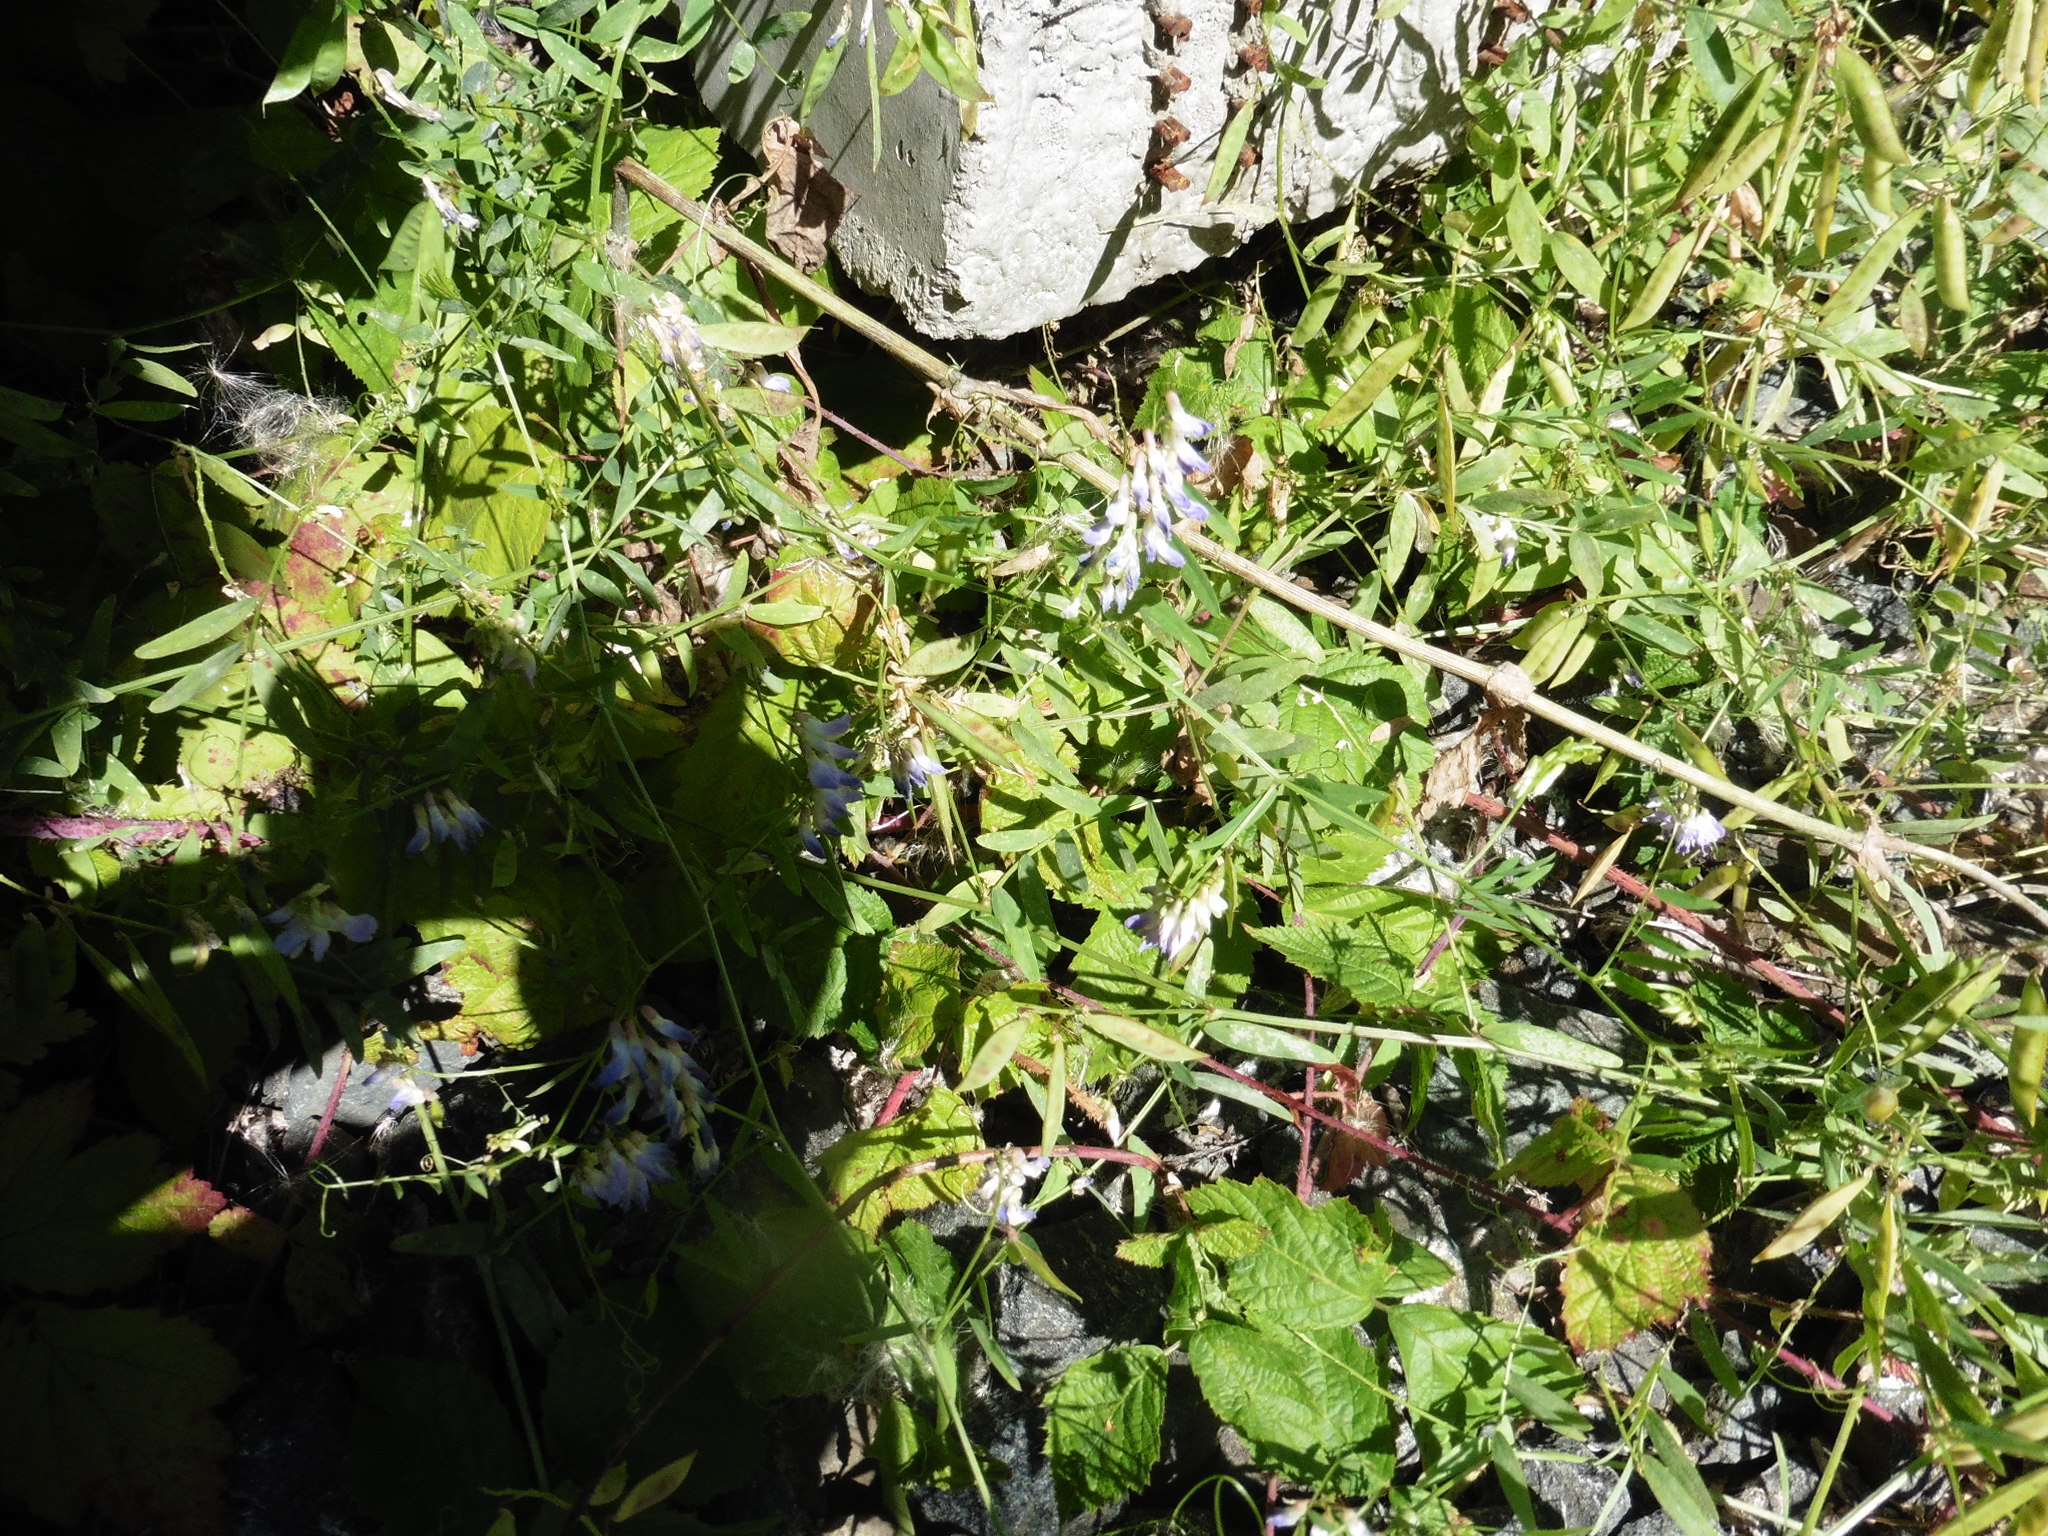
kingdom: Plantae
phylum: Tracheophyta
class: Magnoliopsida
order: Fabales
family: Fabaceae
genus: Vicia
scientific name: Vicia biennis
